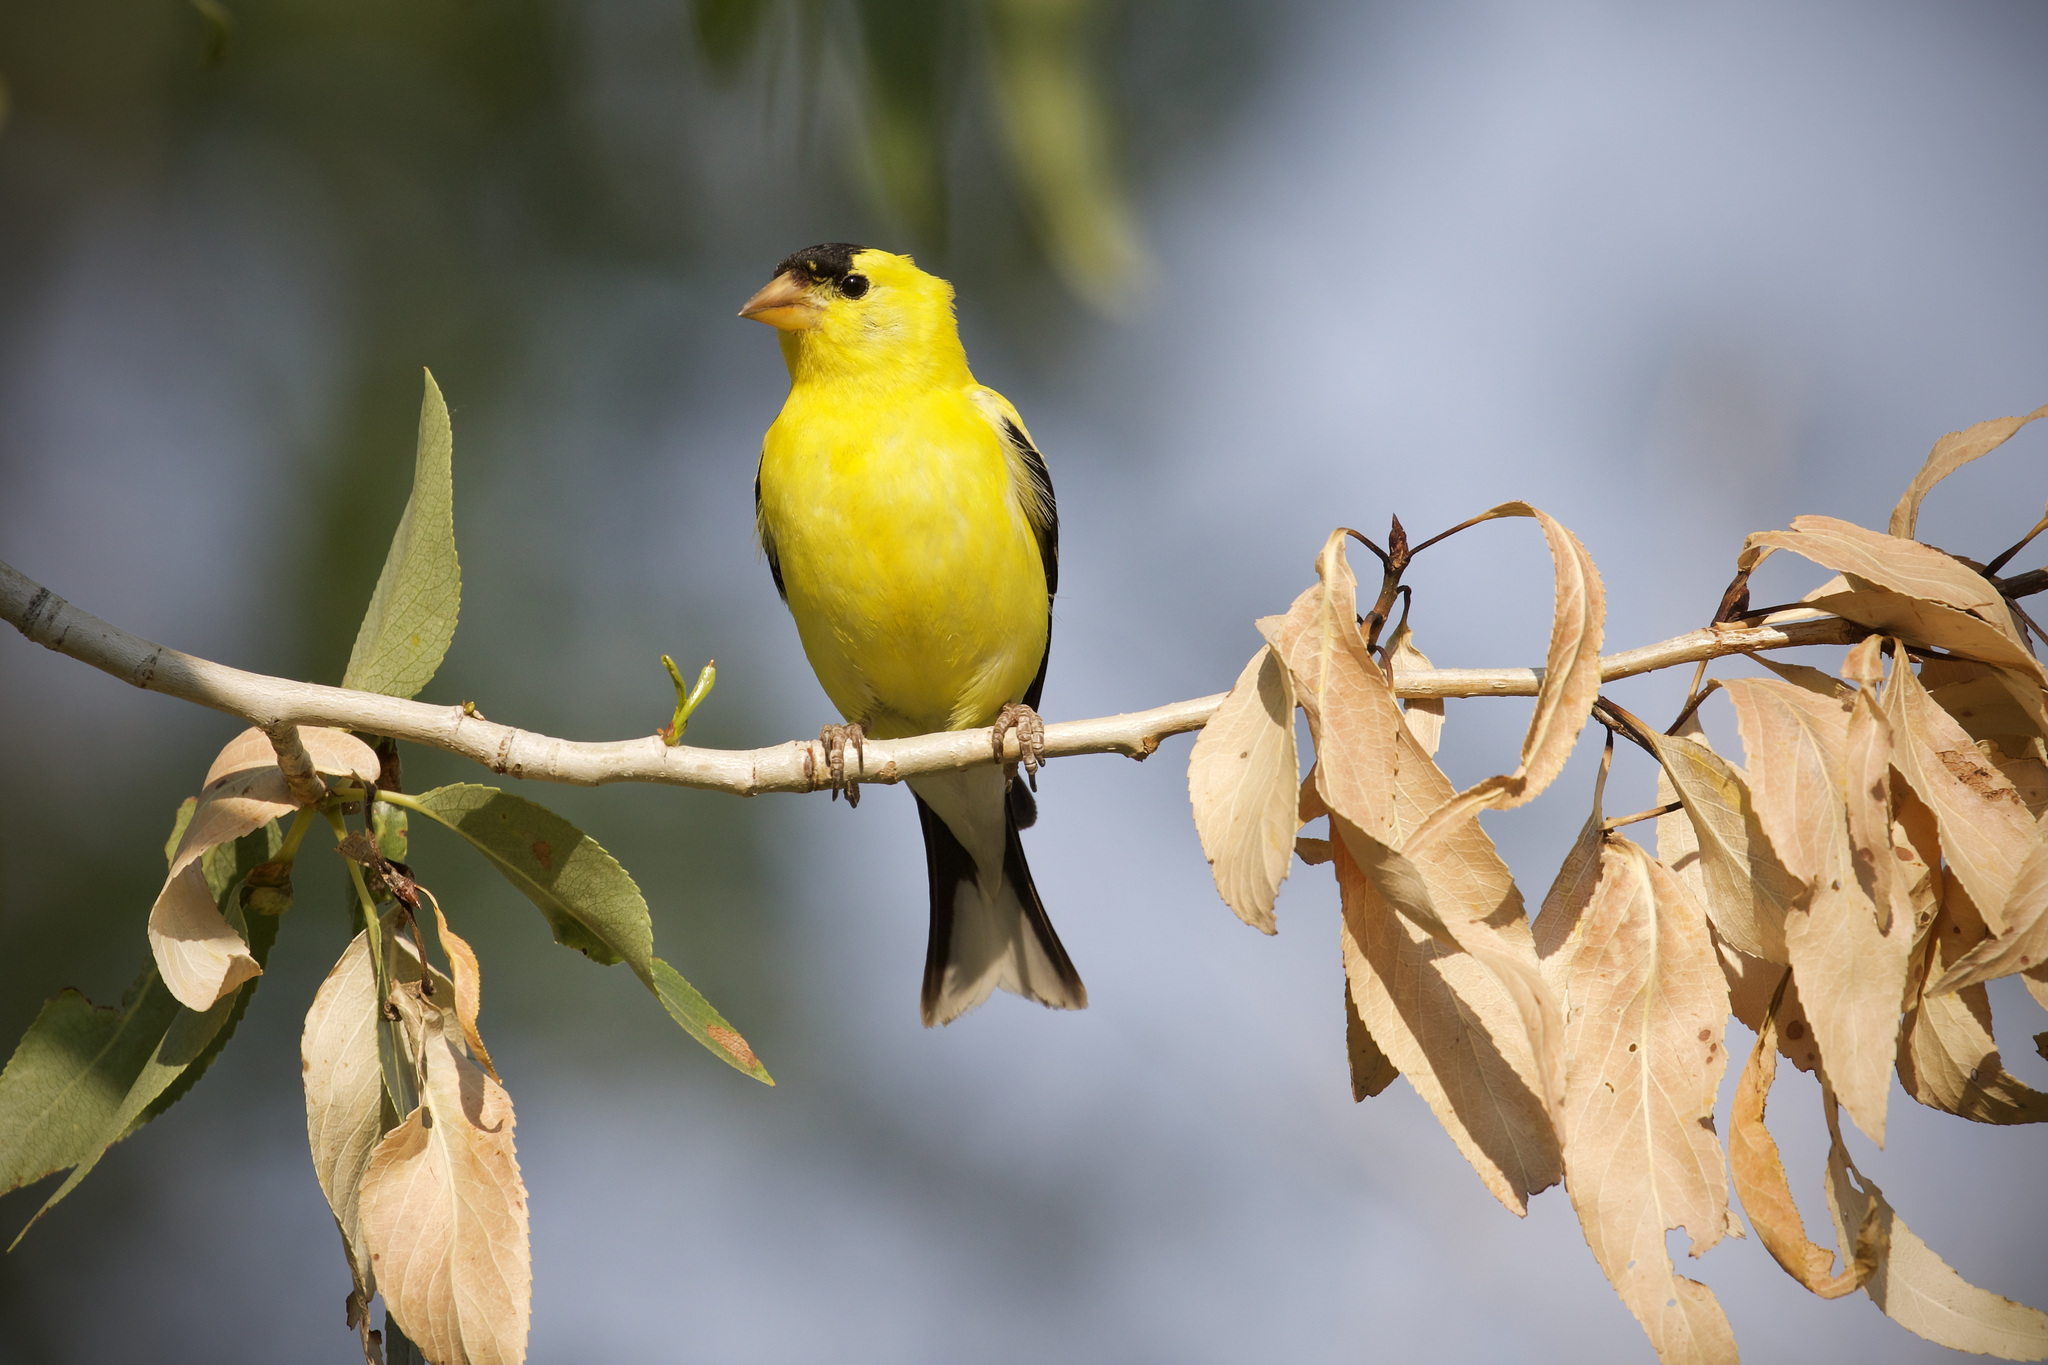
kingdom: Animalia
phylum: Chordata
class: Aves
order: Passeriformes
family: Fringillidae
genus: Spinus
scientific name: Spinus tristis
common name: American goldfinch
